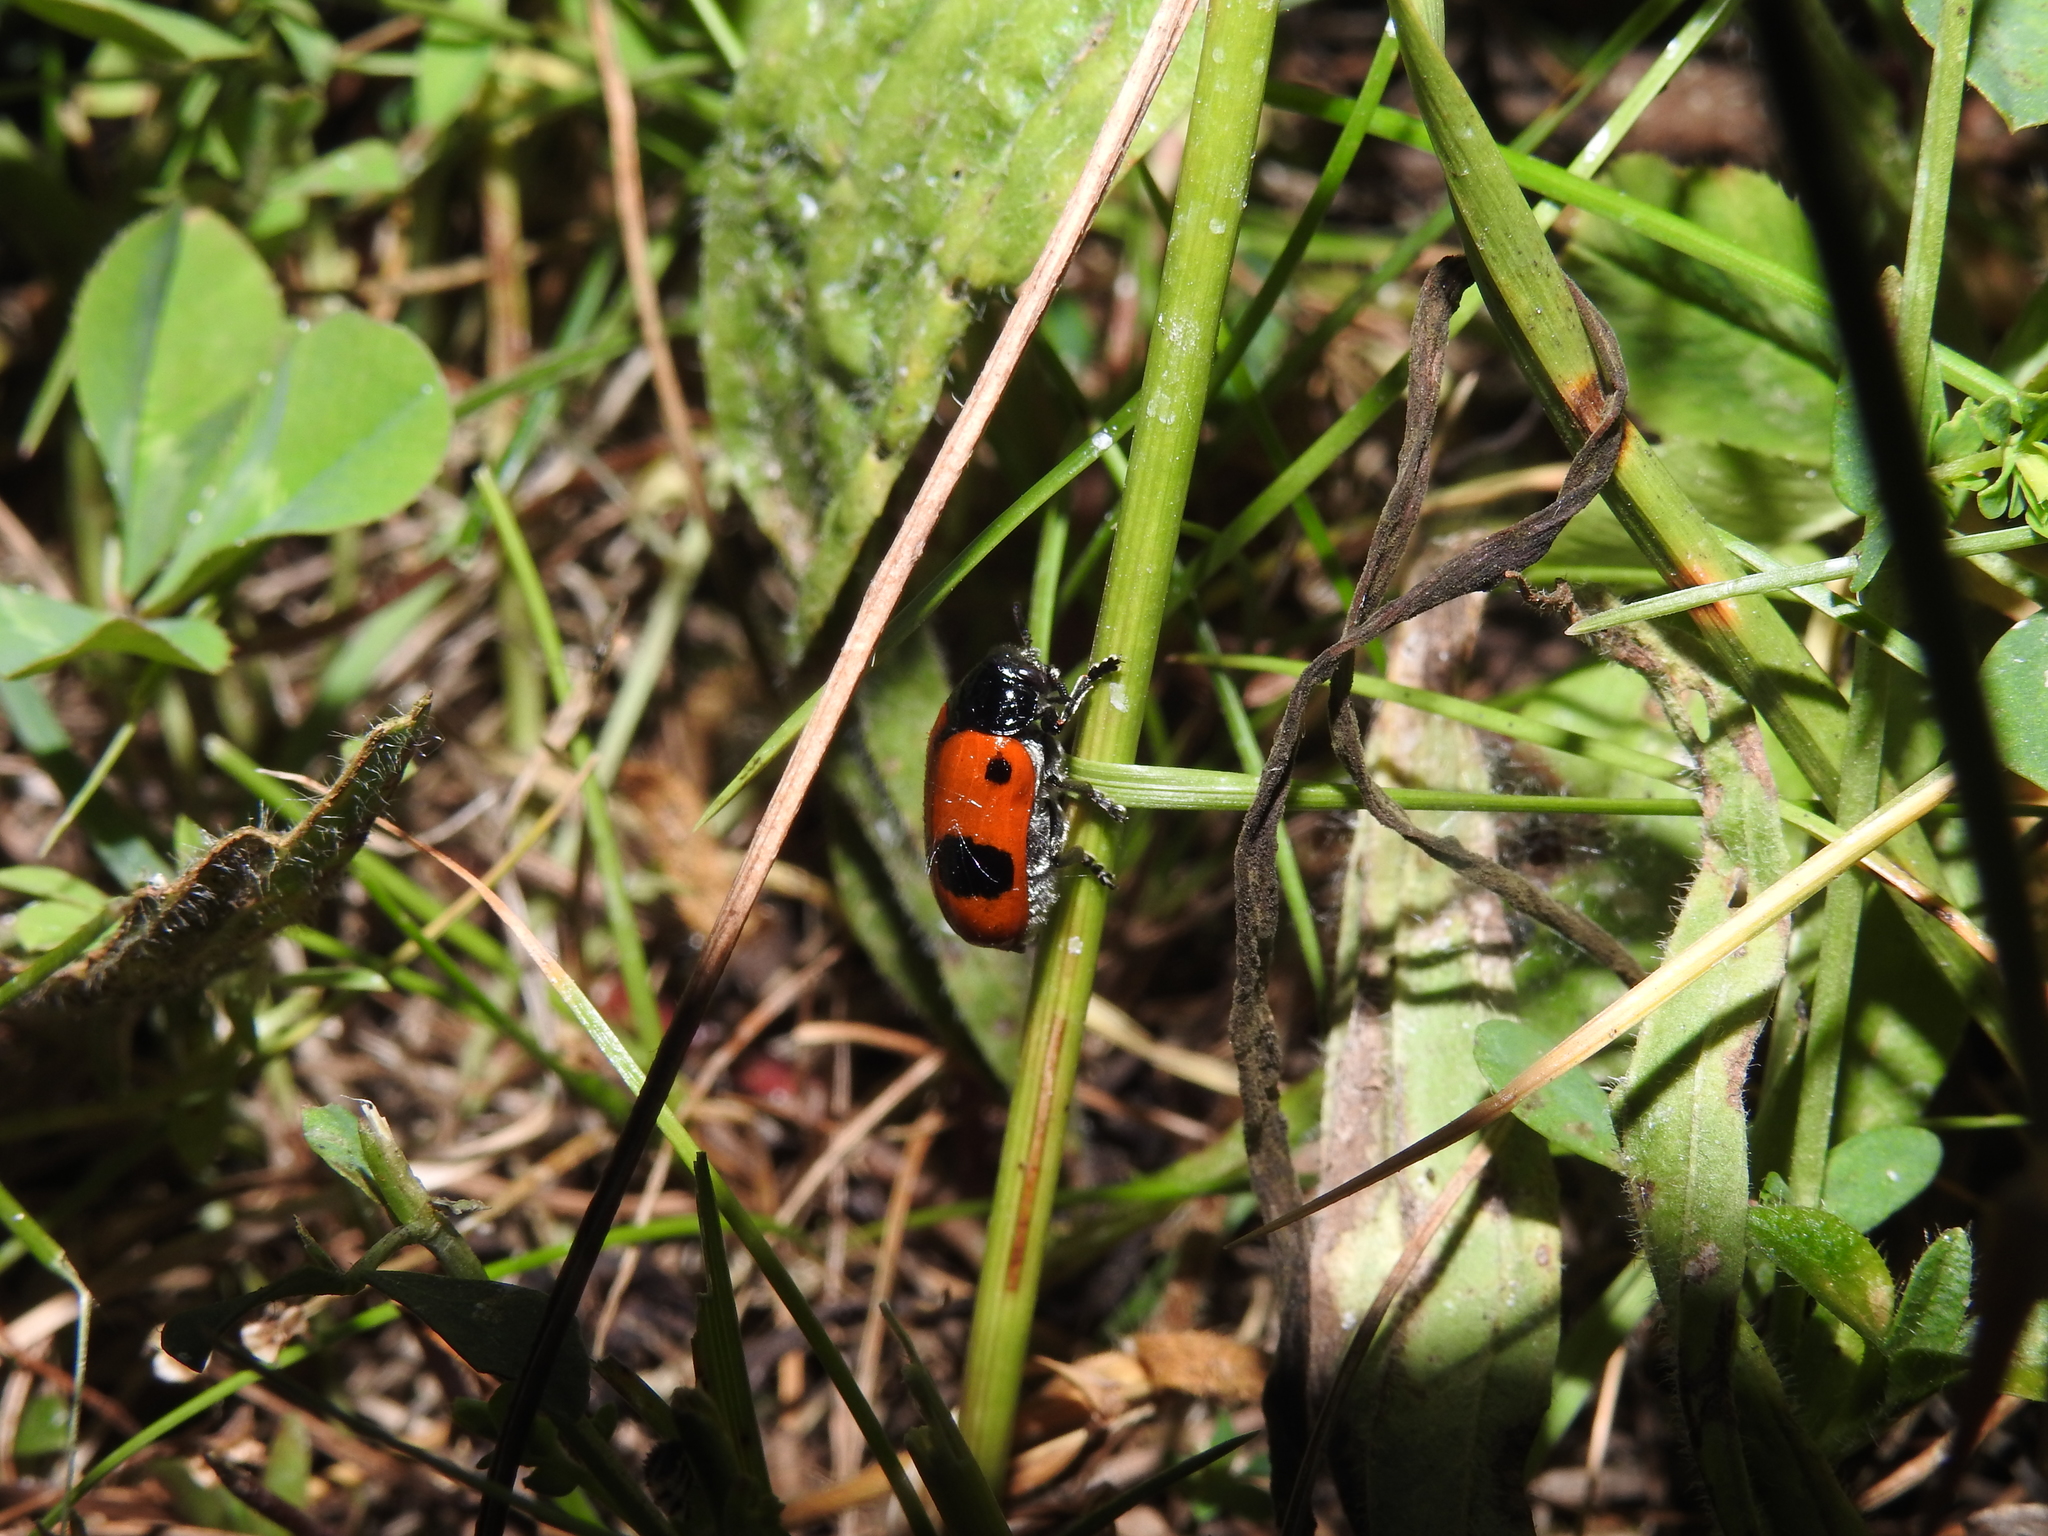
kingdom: Animalia
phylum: Arthropoda
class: Insecta
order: Coleoptera
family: Chrysomelidae
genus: Clytra
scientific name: Clytra laeviuscula
